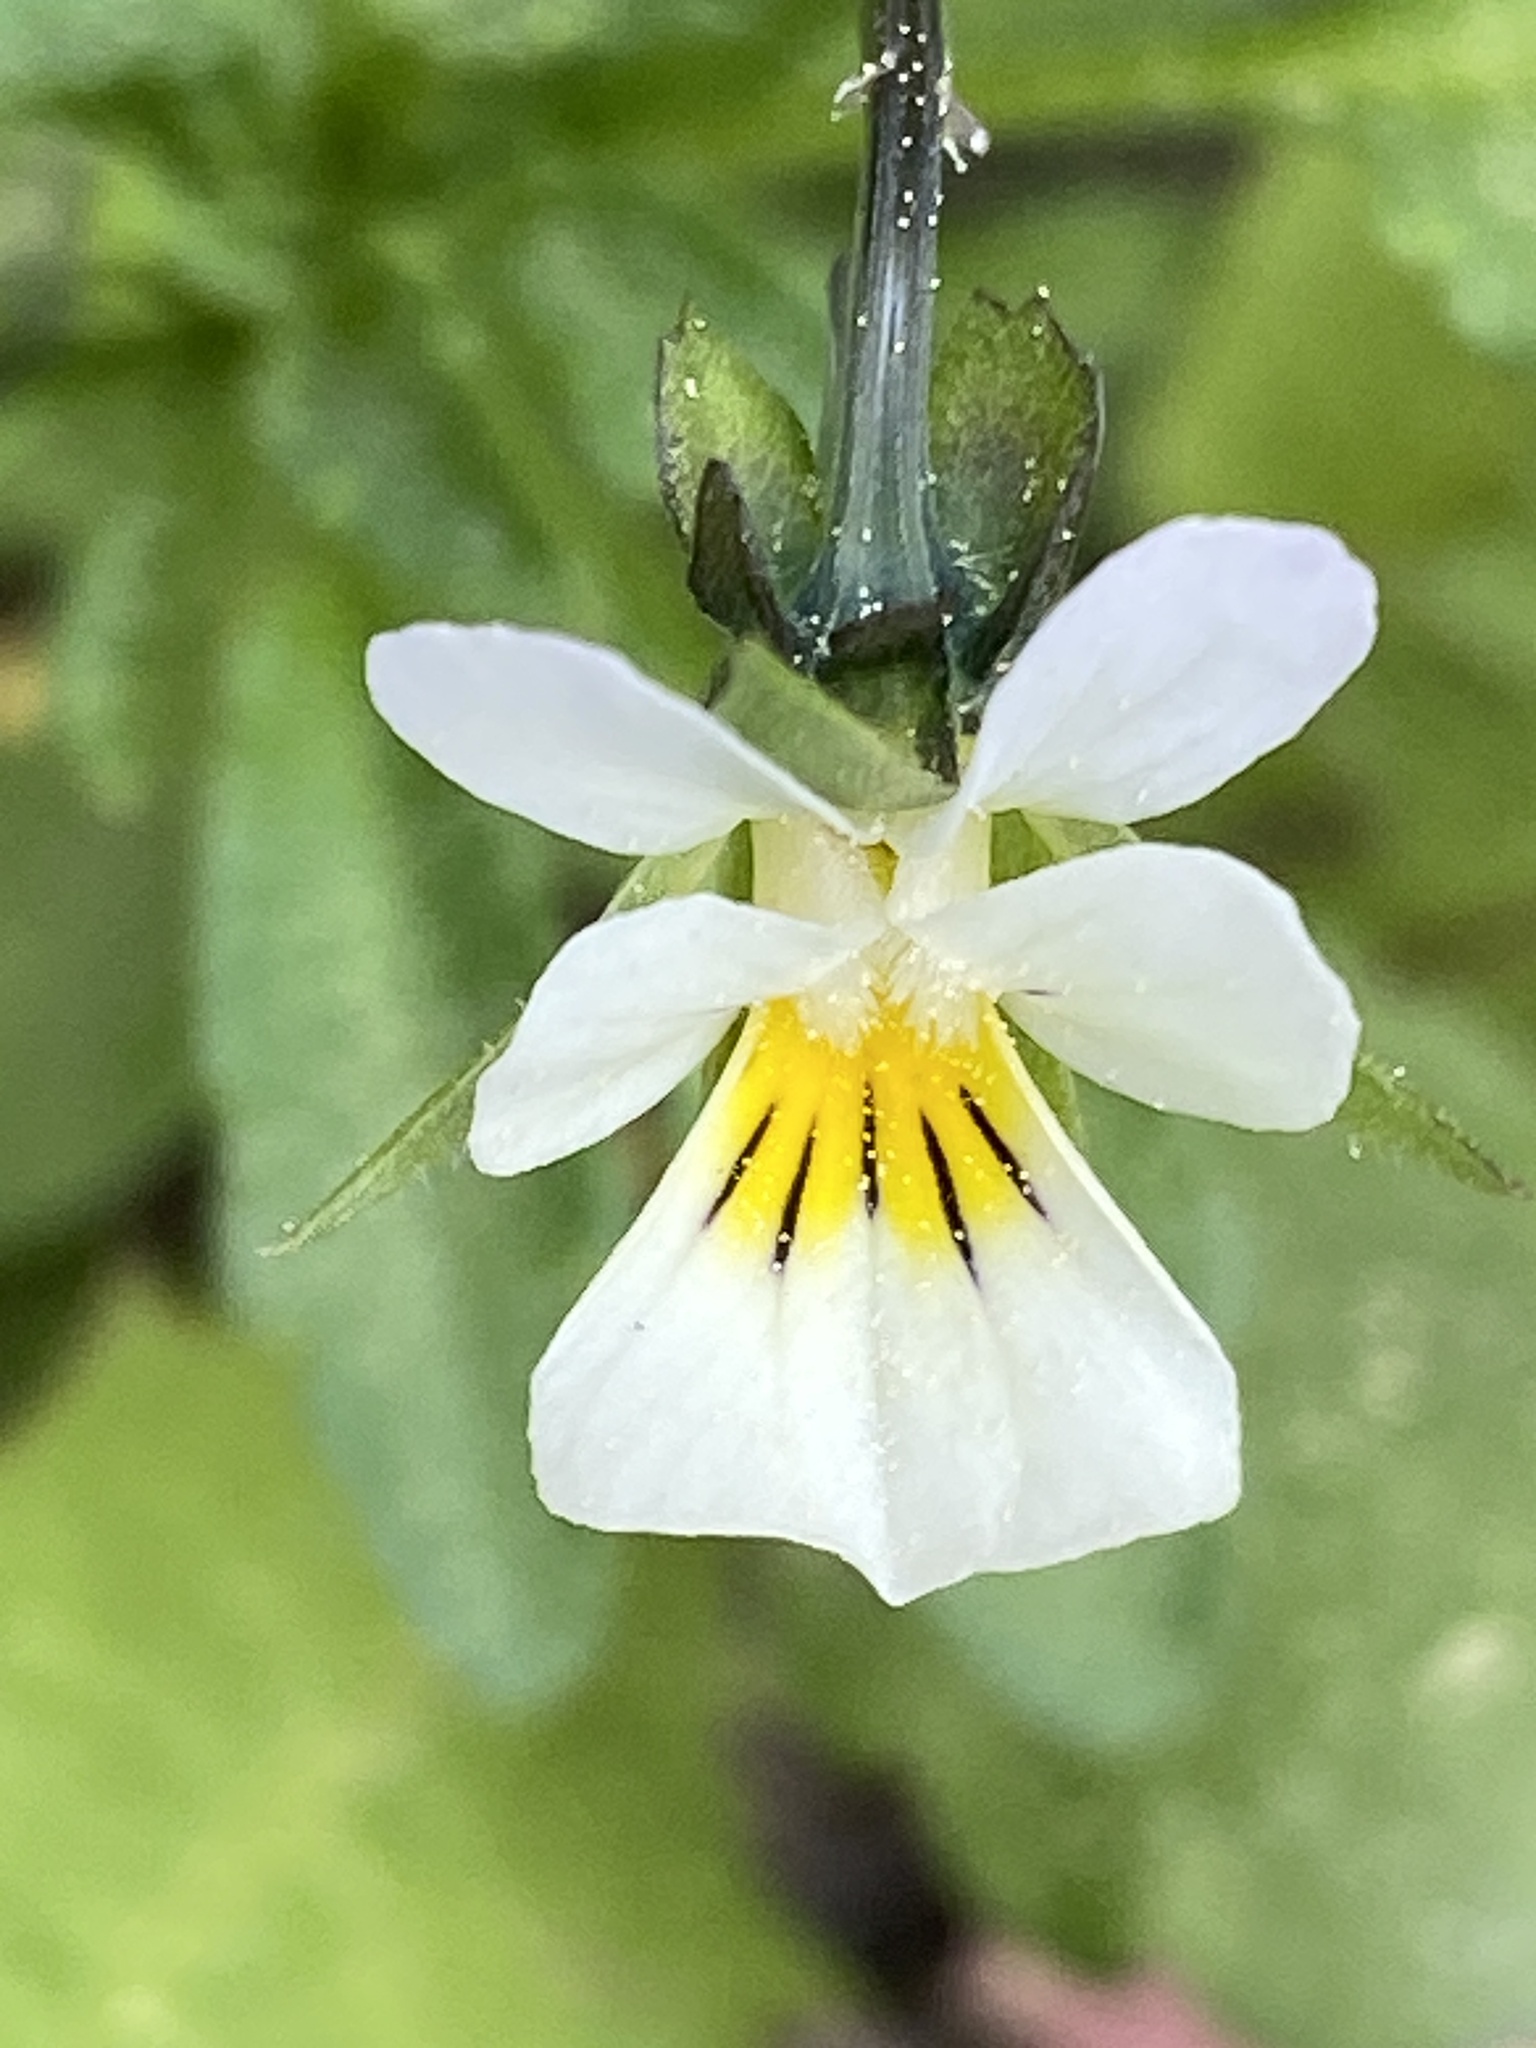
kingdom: Plantae
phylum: Tracheophyta
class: Magnoliopsida
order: Malpighiales
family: Violaceae
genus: Viola
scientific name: Viola arvensis
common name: Field pansy
